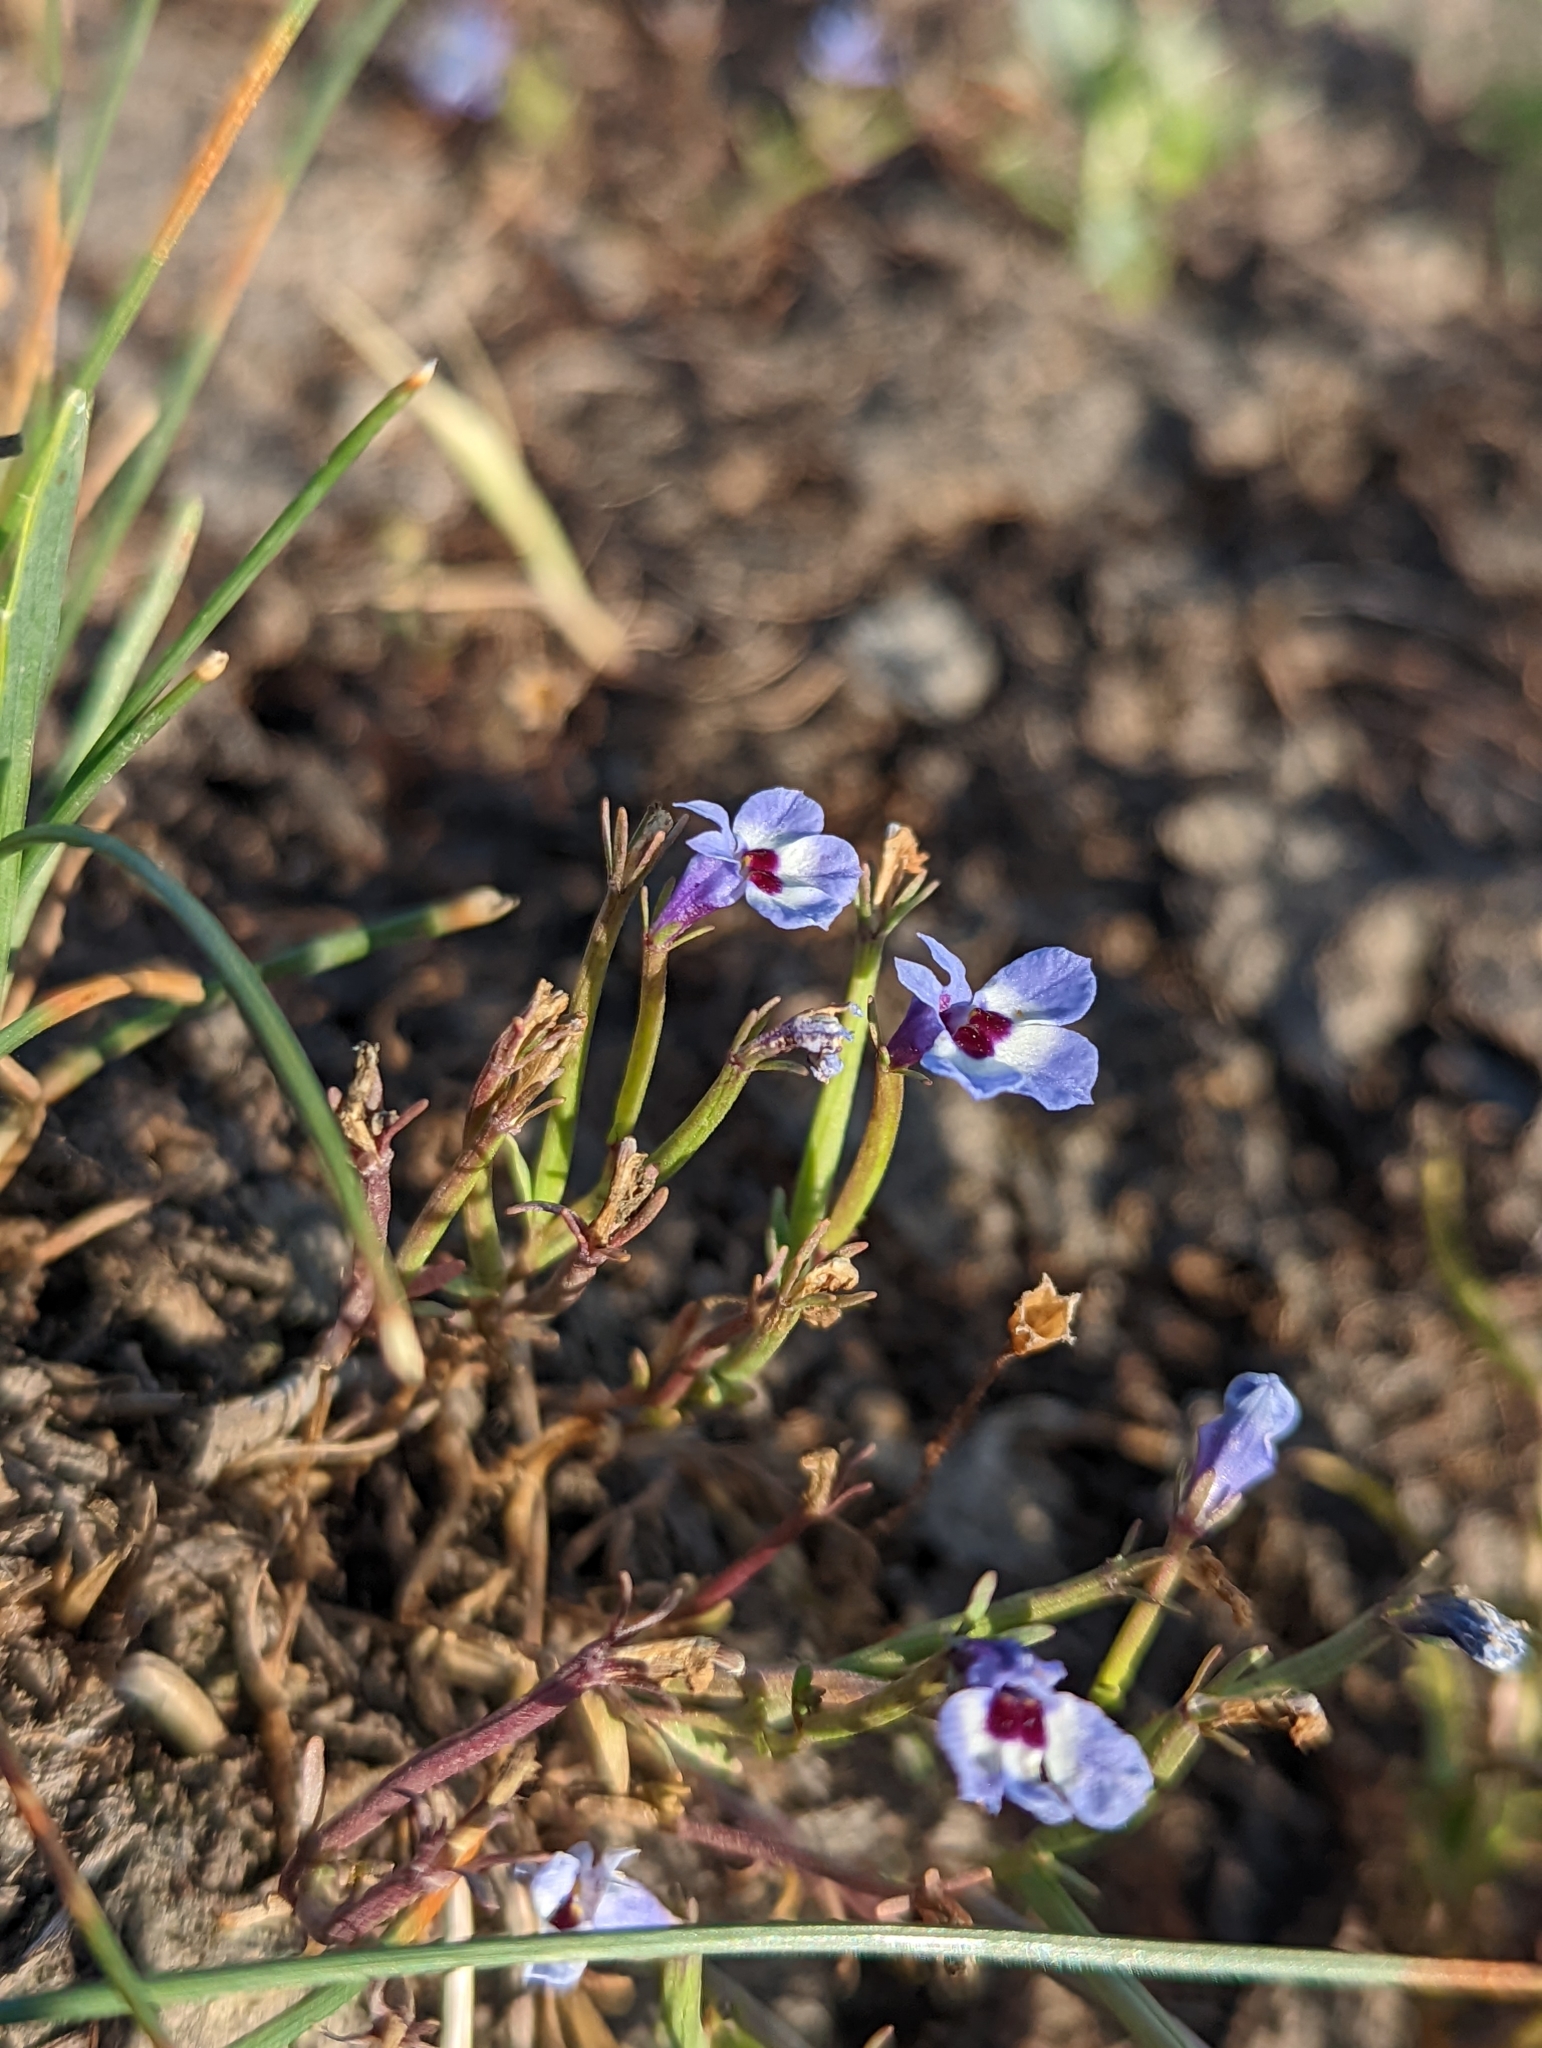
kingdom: Plantae
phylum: Tracheophyta
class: Magnoliopsida
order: Asterales
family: Campanulaceae
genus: Downingia
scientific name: Downingia concolor
